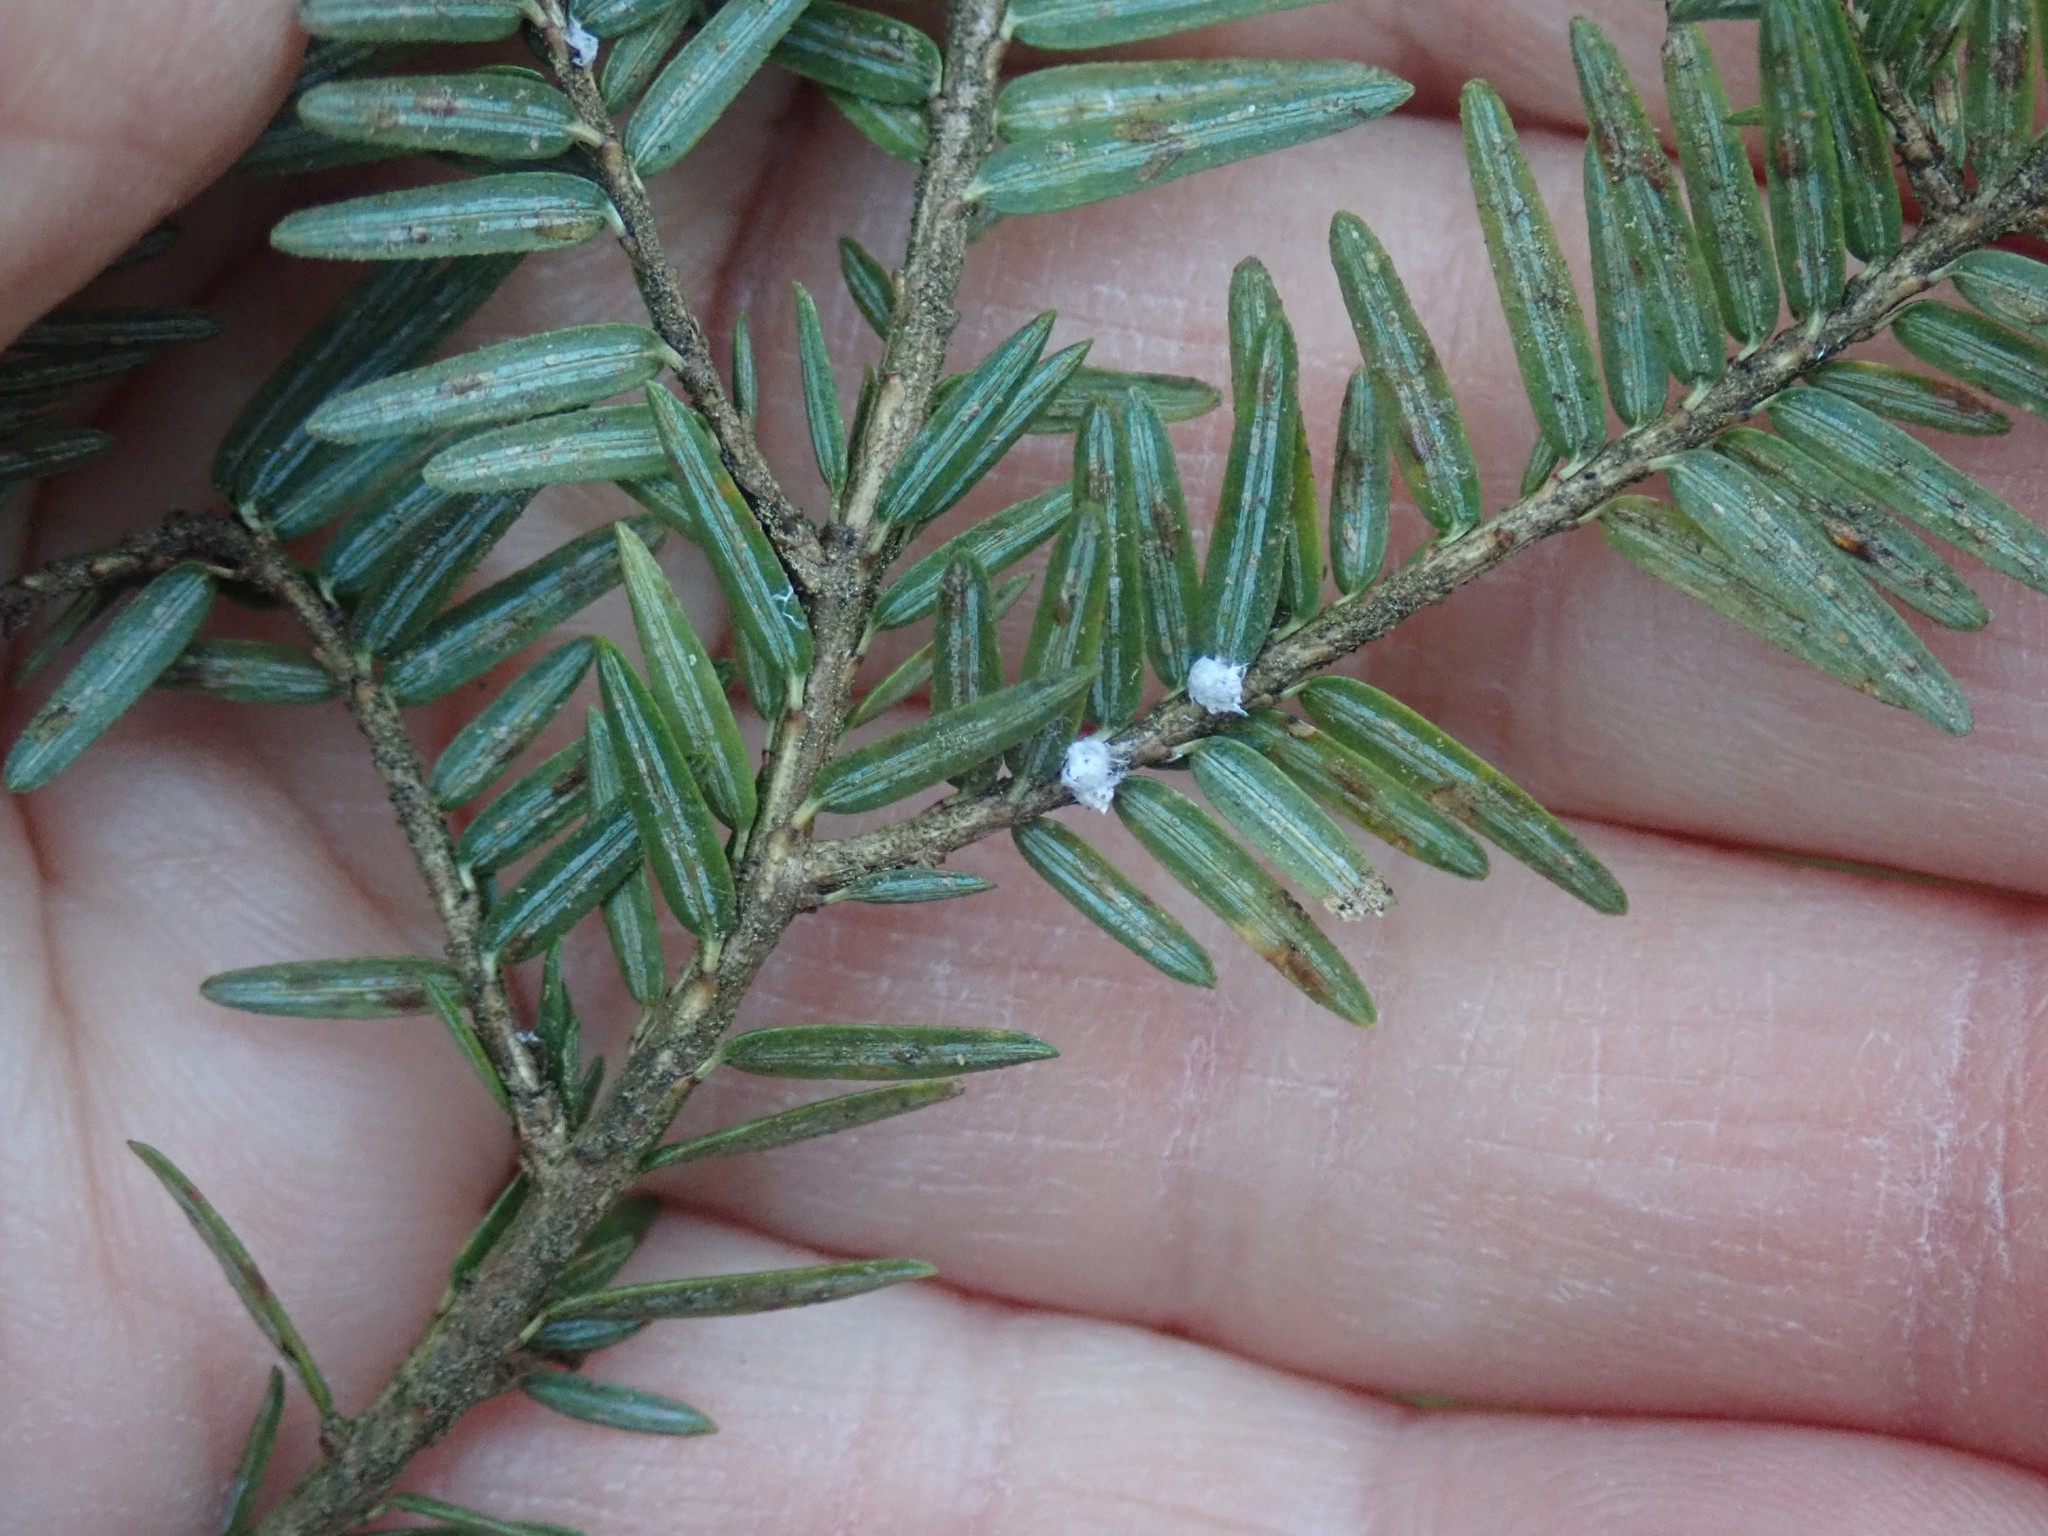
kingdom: Animalia
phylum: Arthropoda
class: Insecta
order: Hemiptera
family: Adelgidae
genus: Adelges
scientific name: Adelges tsugae
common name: Hemlock woolly adelgid
